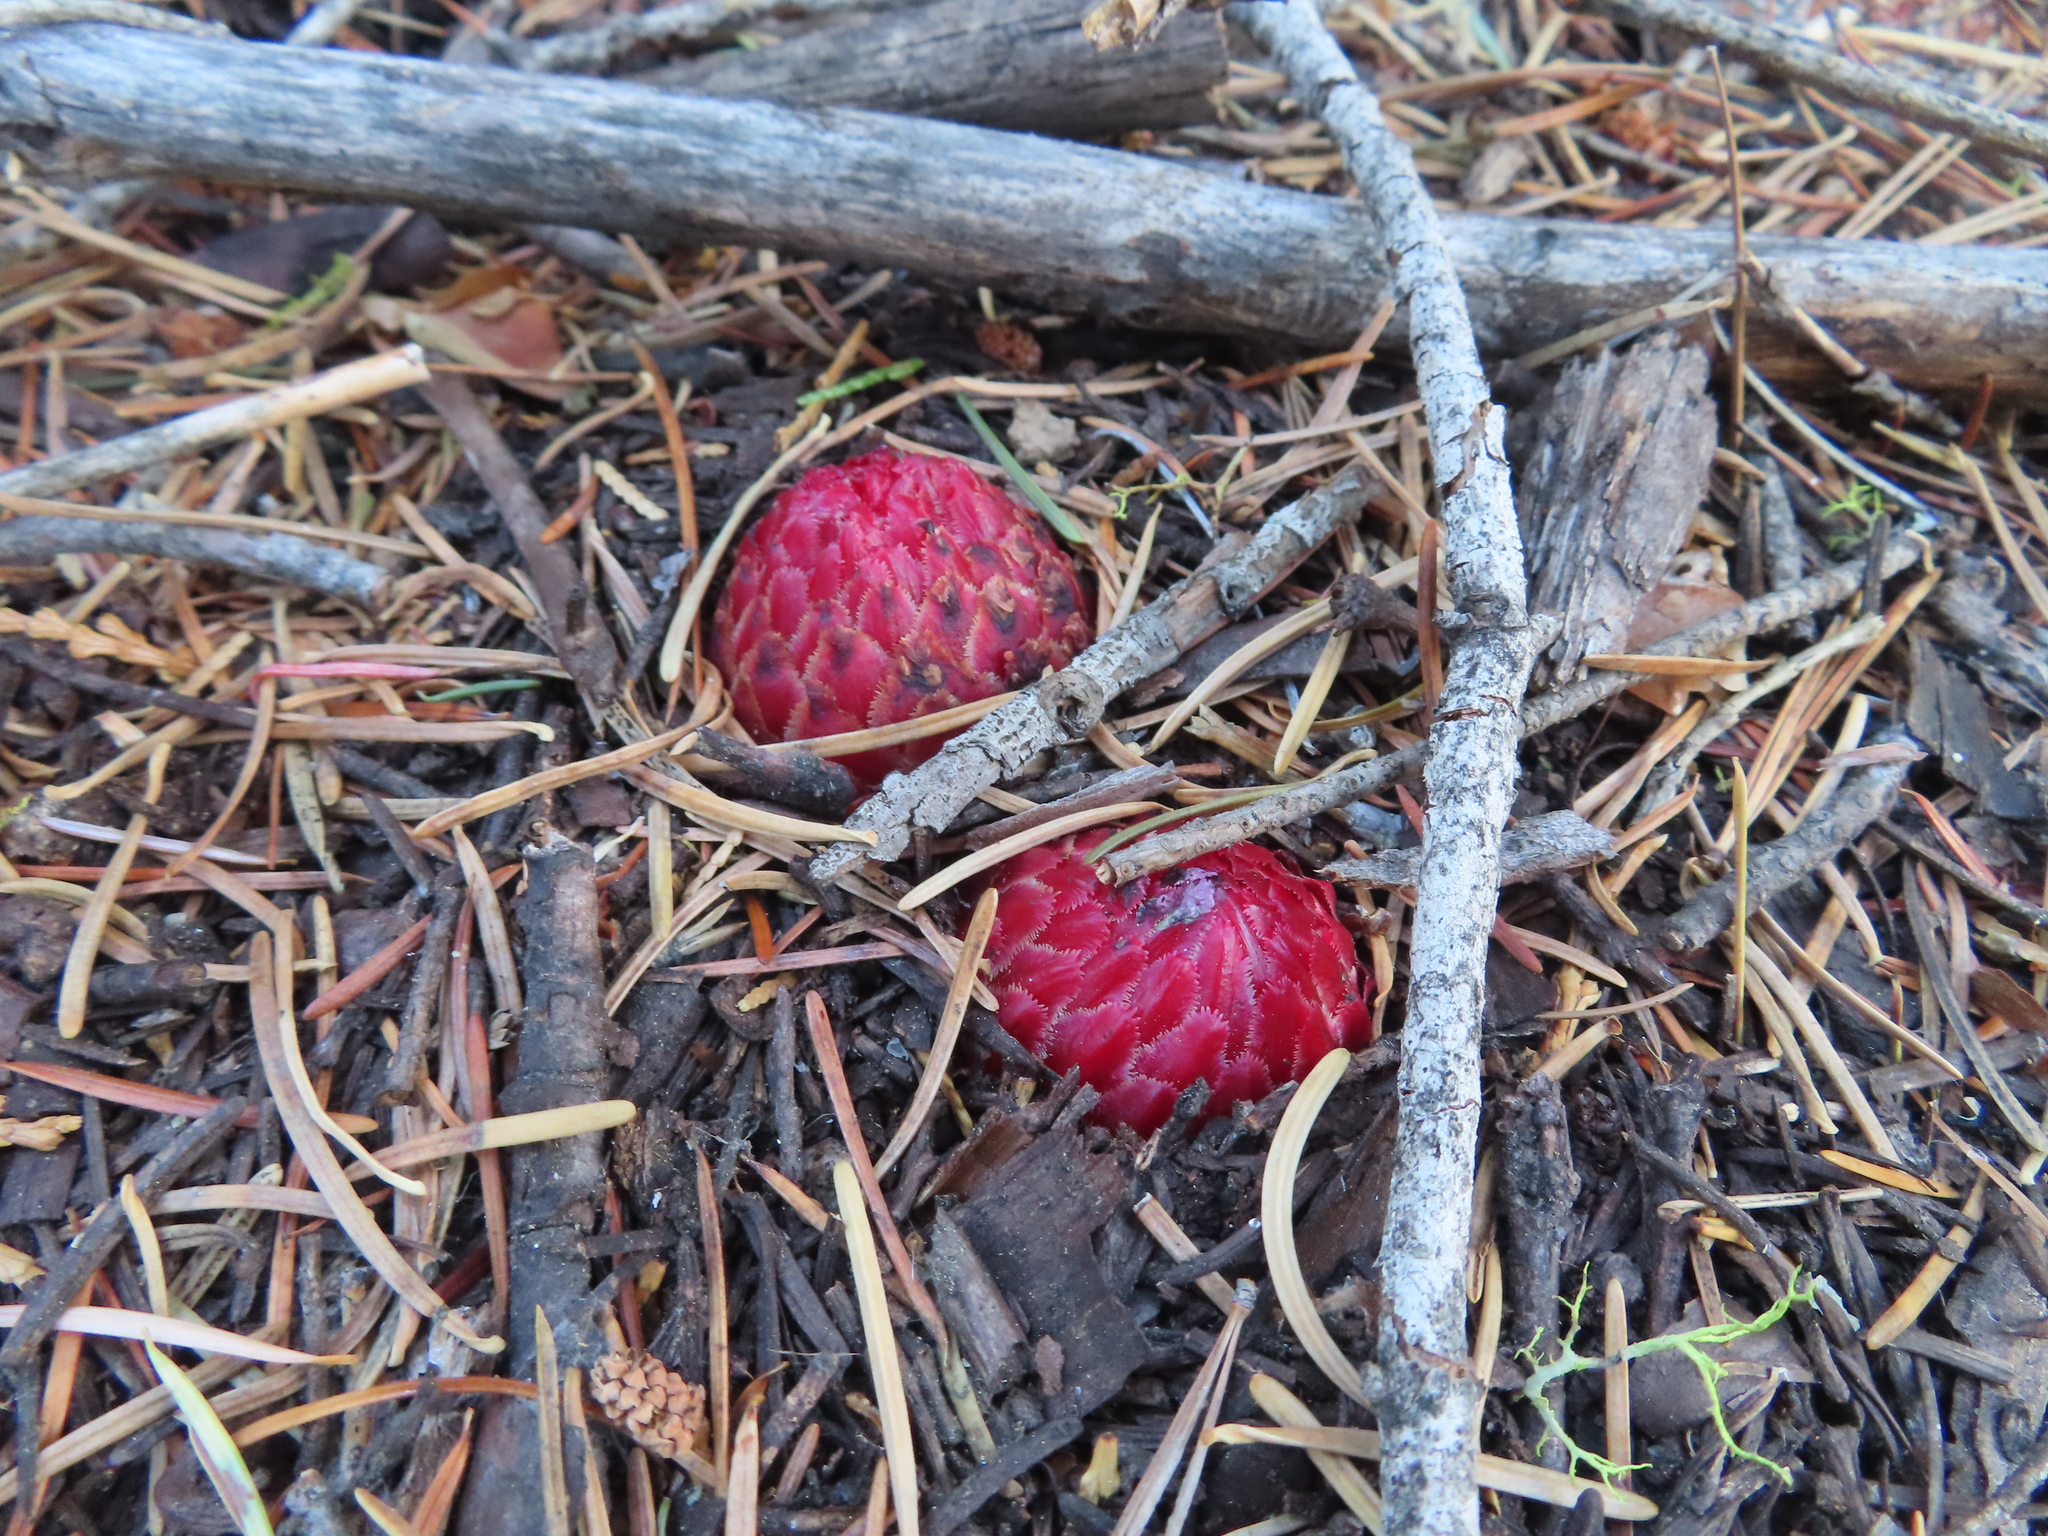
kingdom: Plantae
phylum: Tracheophyta
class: Magnoliopsida
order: Ericales
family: Ericaceae
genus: Sarcodes
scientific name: Sarcodes sanguinea
